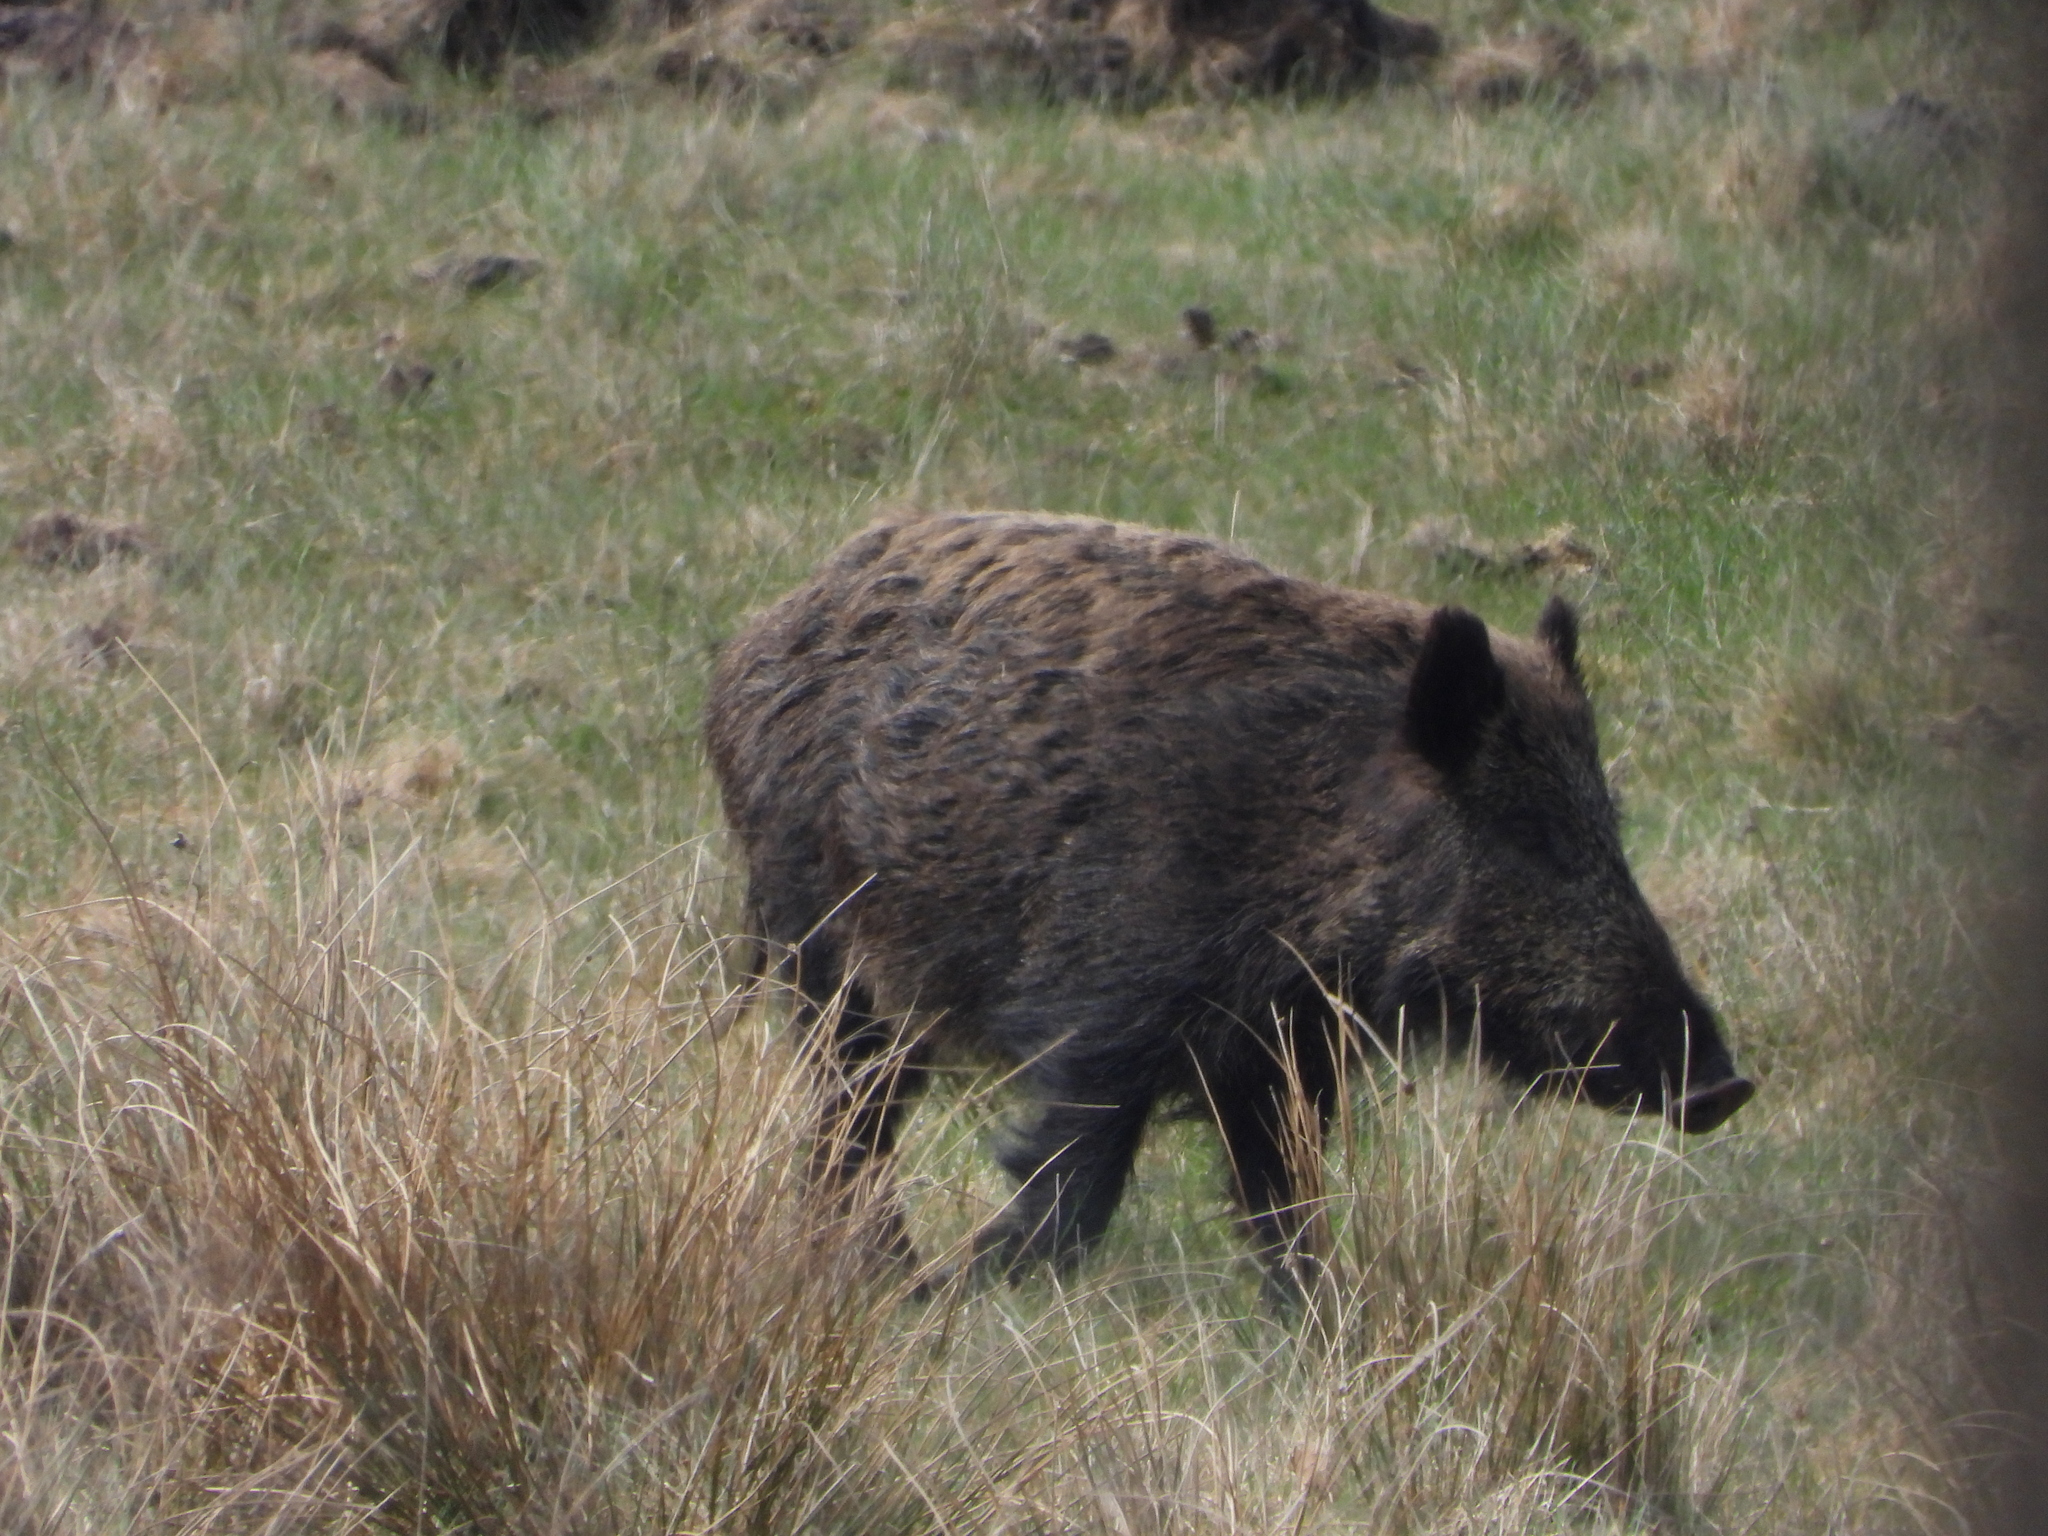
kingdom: Animalia
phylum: Chordata
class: Mammalia
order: Artiodactyla
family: Suidae
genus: Sus
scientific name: Sus scrofa
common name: Wild boar
